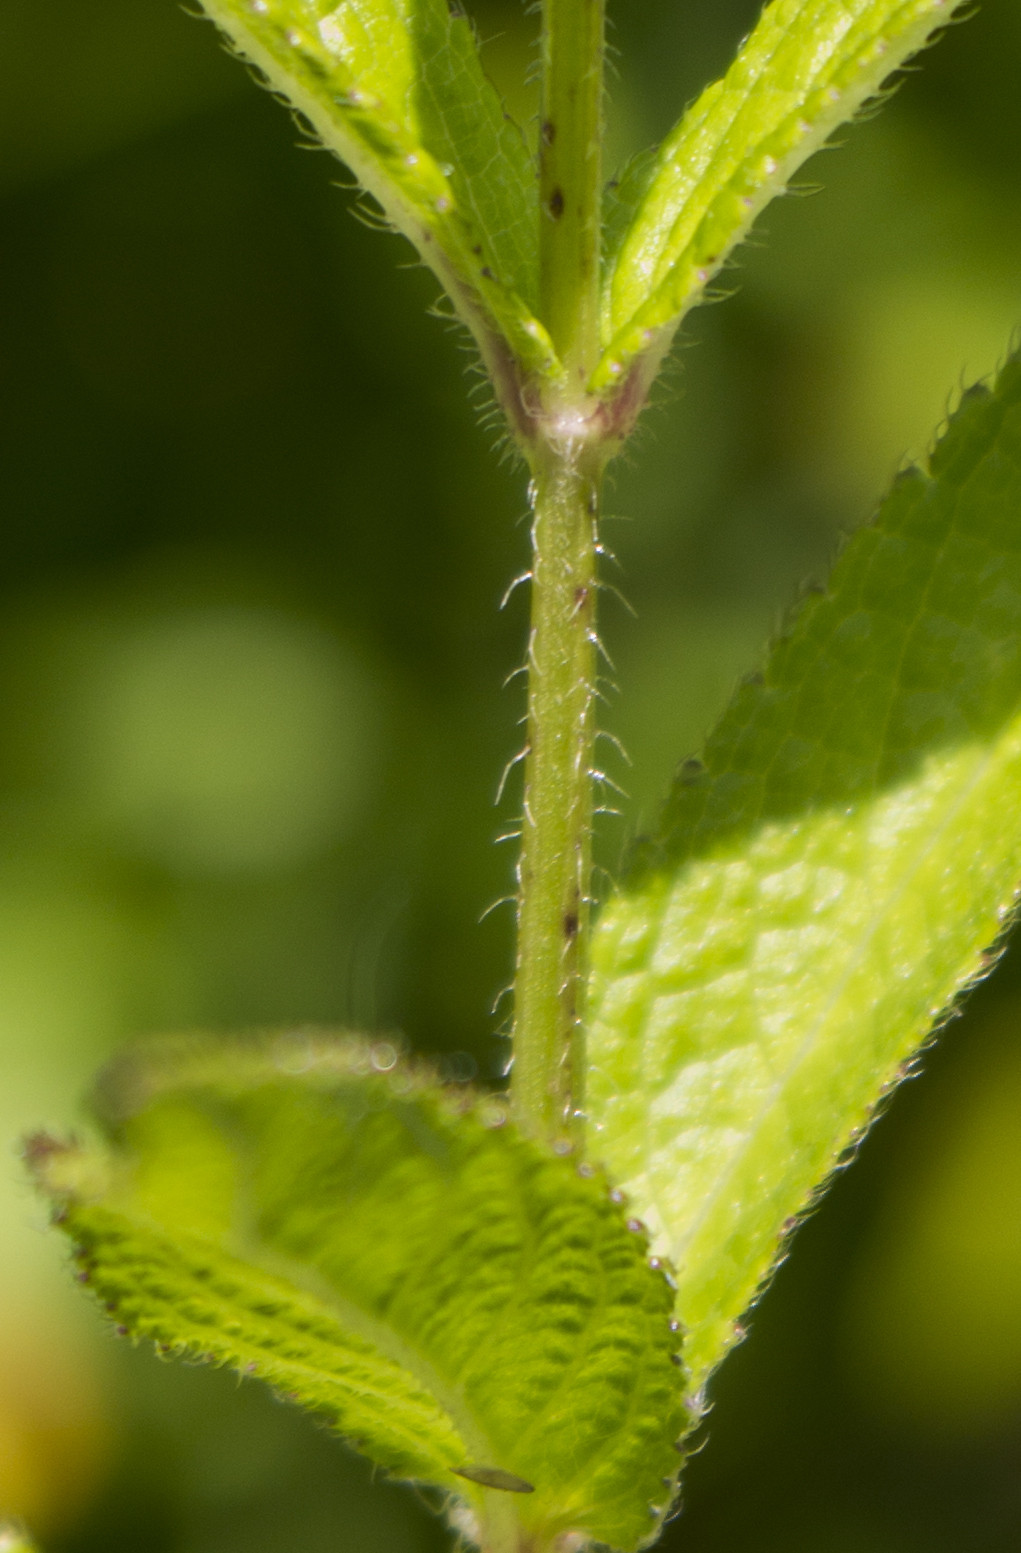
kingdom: Plantae
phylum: Tracheophyta
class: Magnoliopsida
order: Lamiales
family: Lamiaceae
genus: Stachys
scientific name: Stachys hispida
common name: Hispid hedge-nettle
